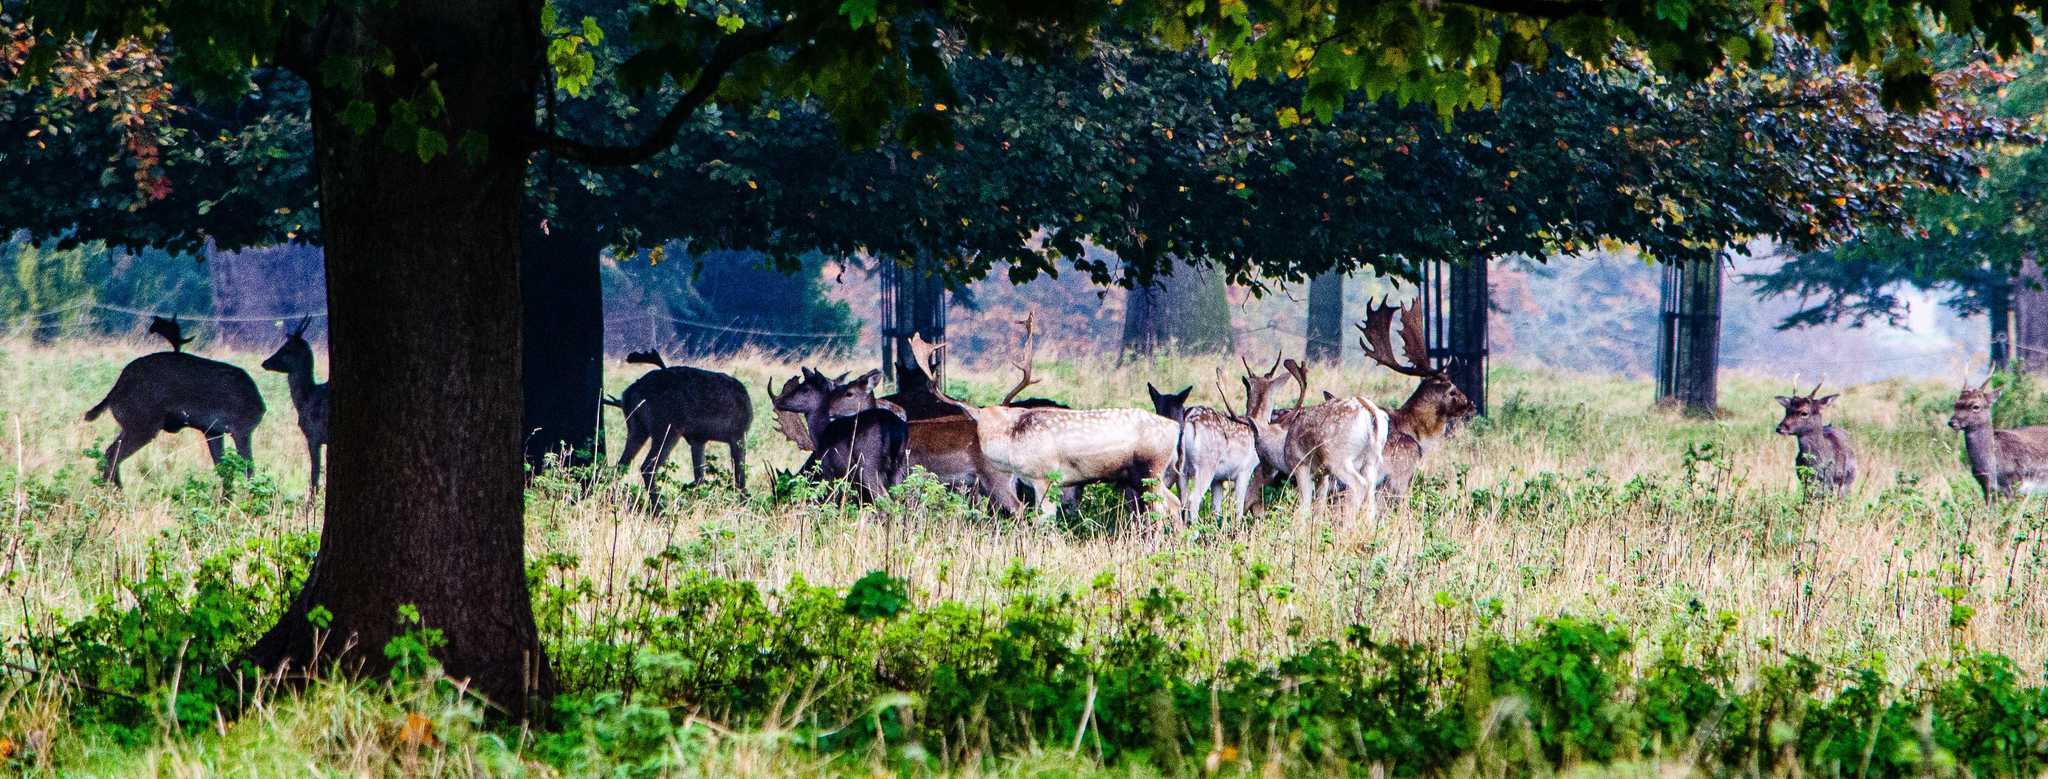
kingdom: Animalia
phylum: Chordata
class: Mammalia
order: Artiodactyla
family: Cervidae
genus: Dama
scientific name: Dama dama
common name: Fallow deer
